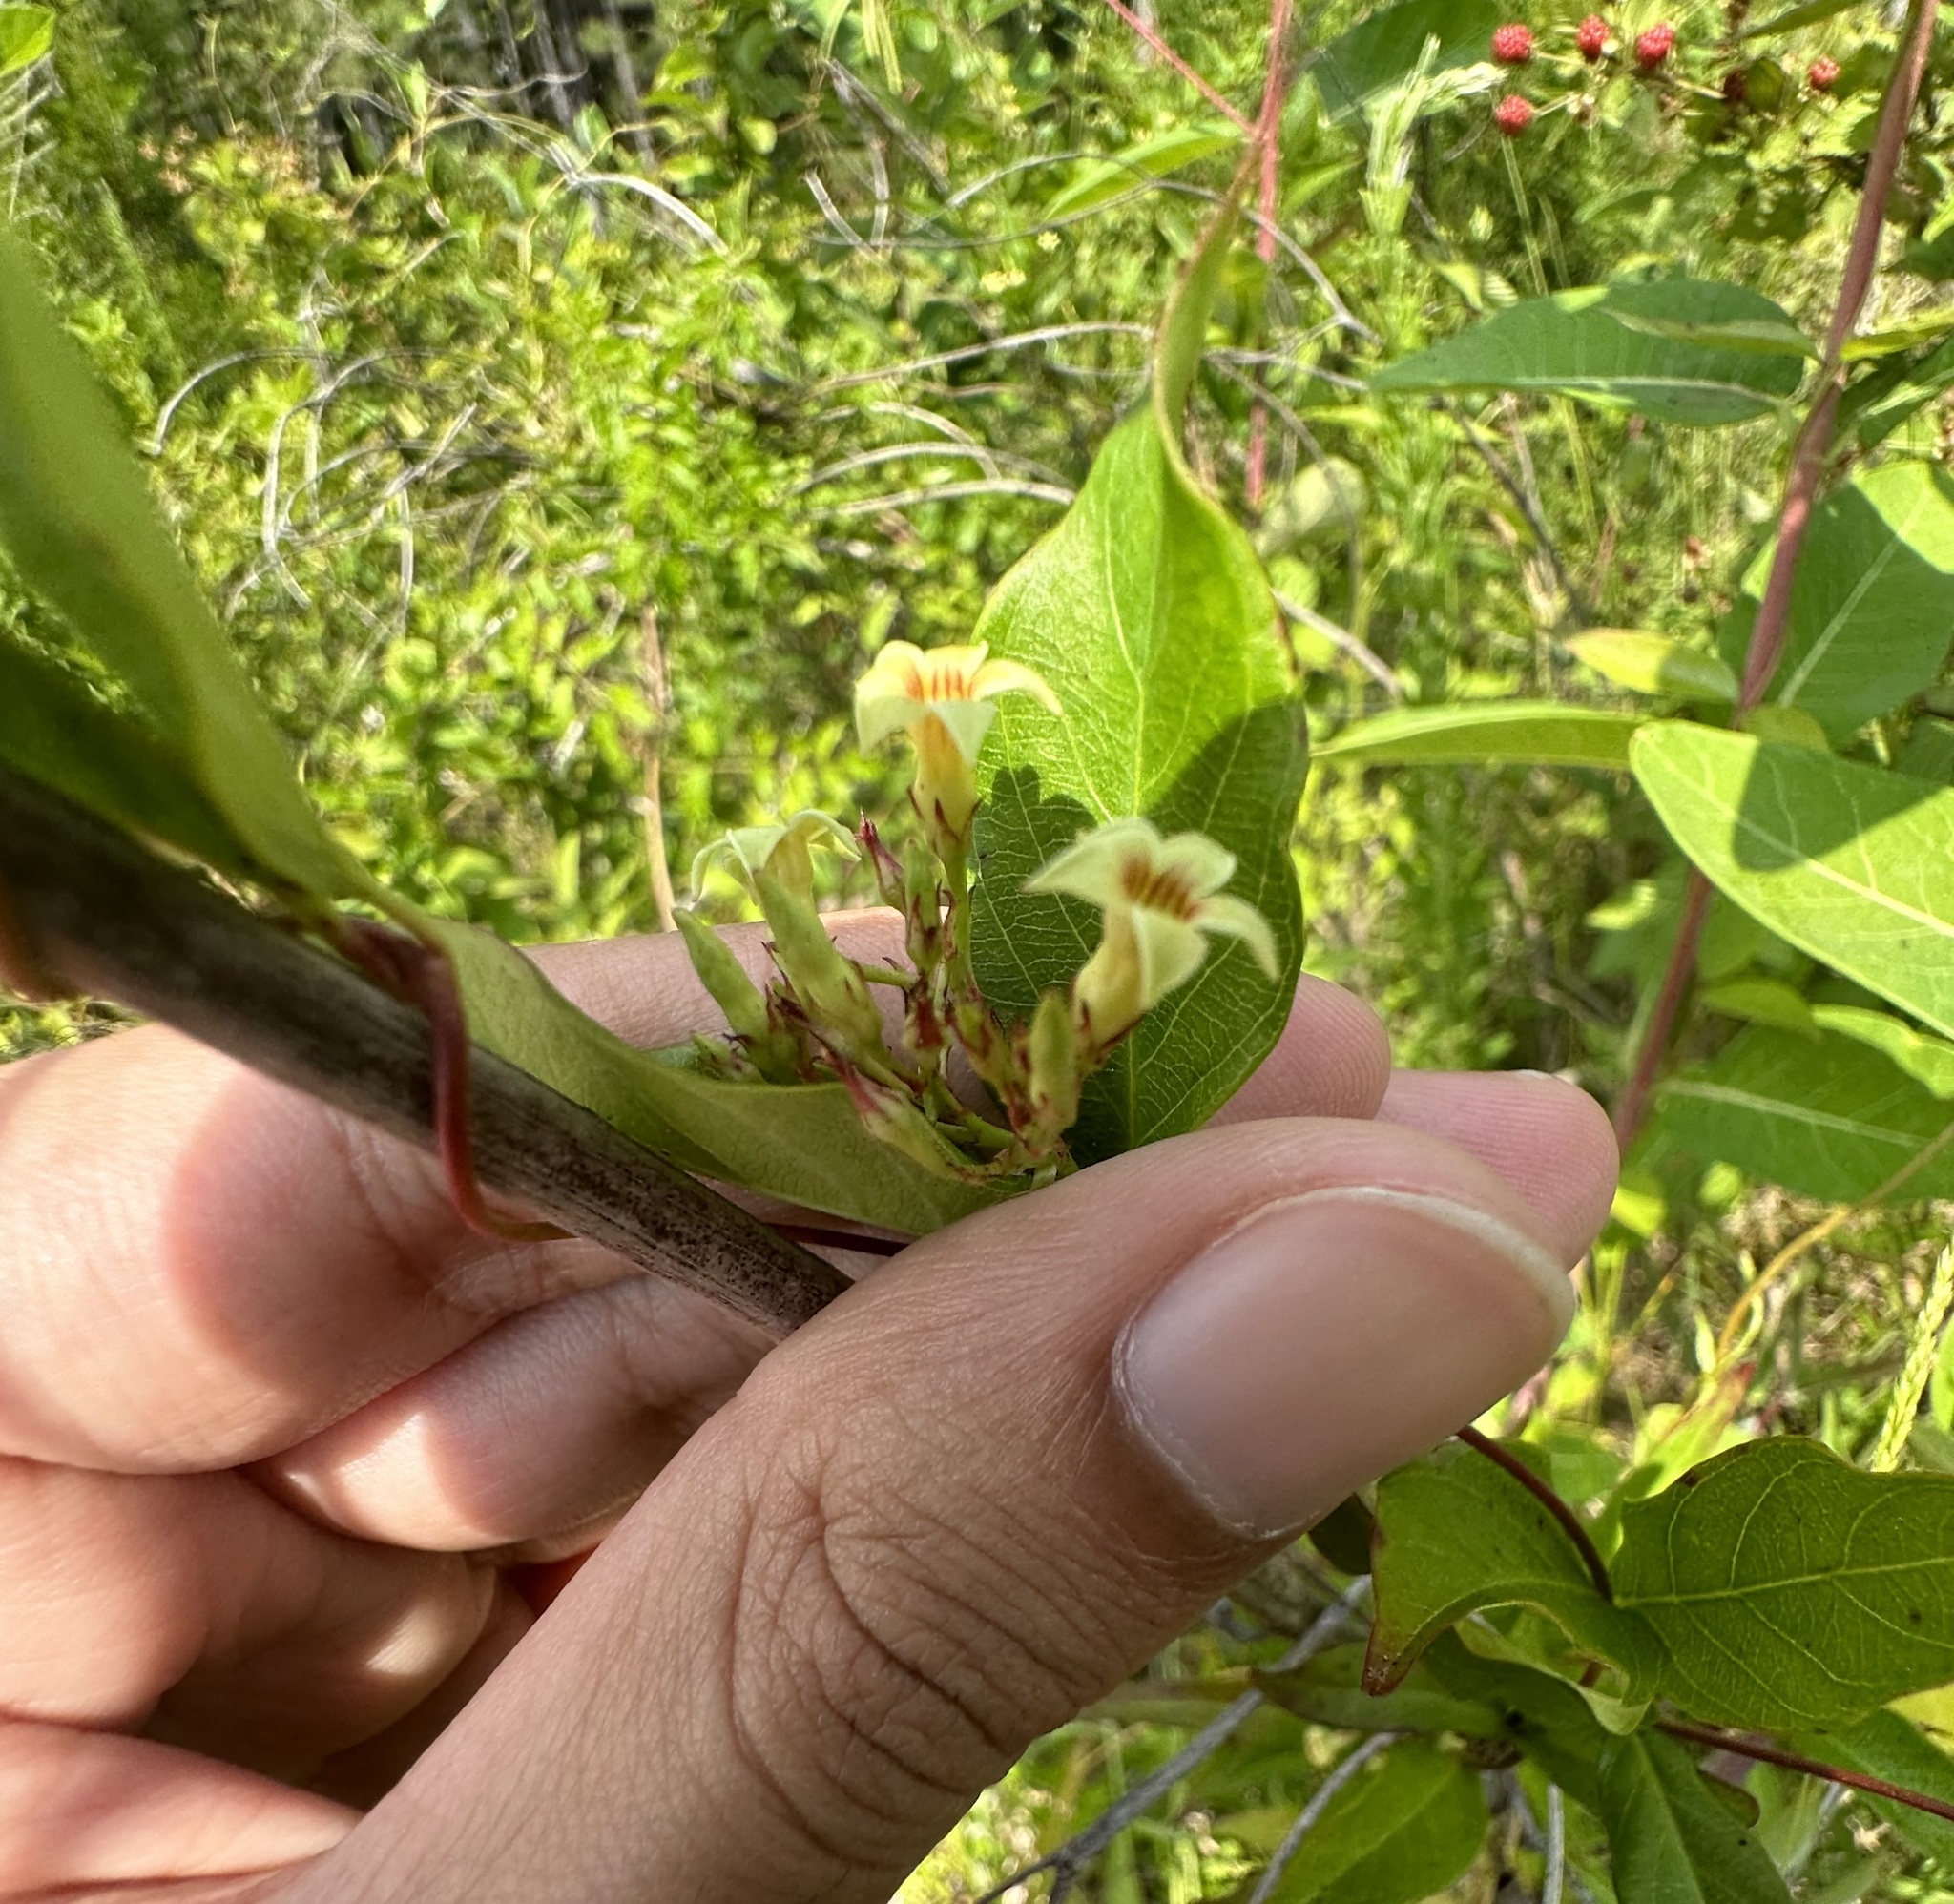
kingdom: Plantae
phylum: Tracheophyta
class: Magnoliopsida
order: Gentianales
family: Apocynaceae
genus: Thyrsanthella
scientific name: Thyrsanthella difformis
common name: Climbing dogbane
